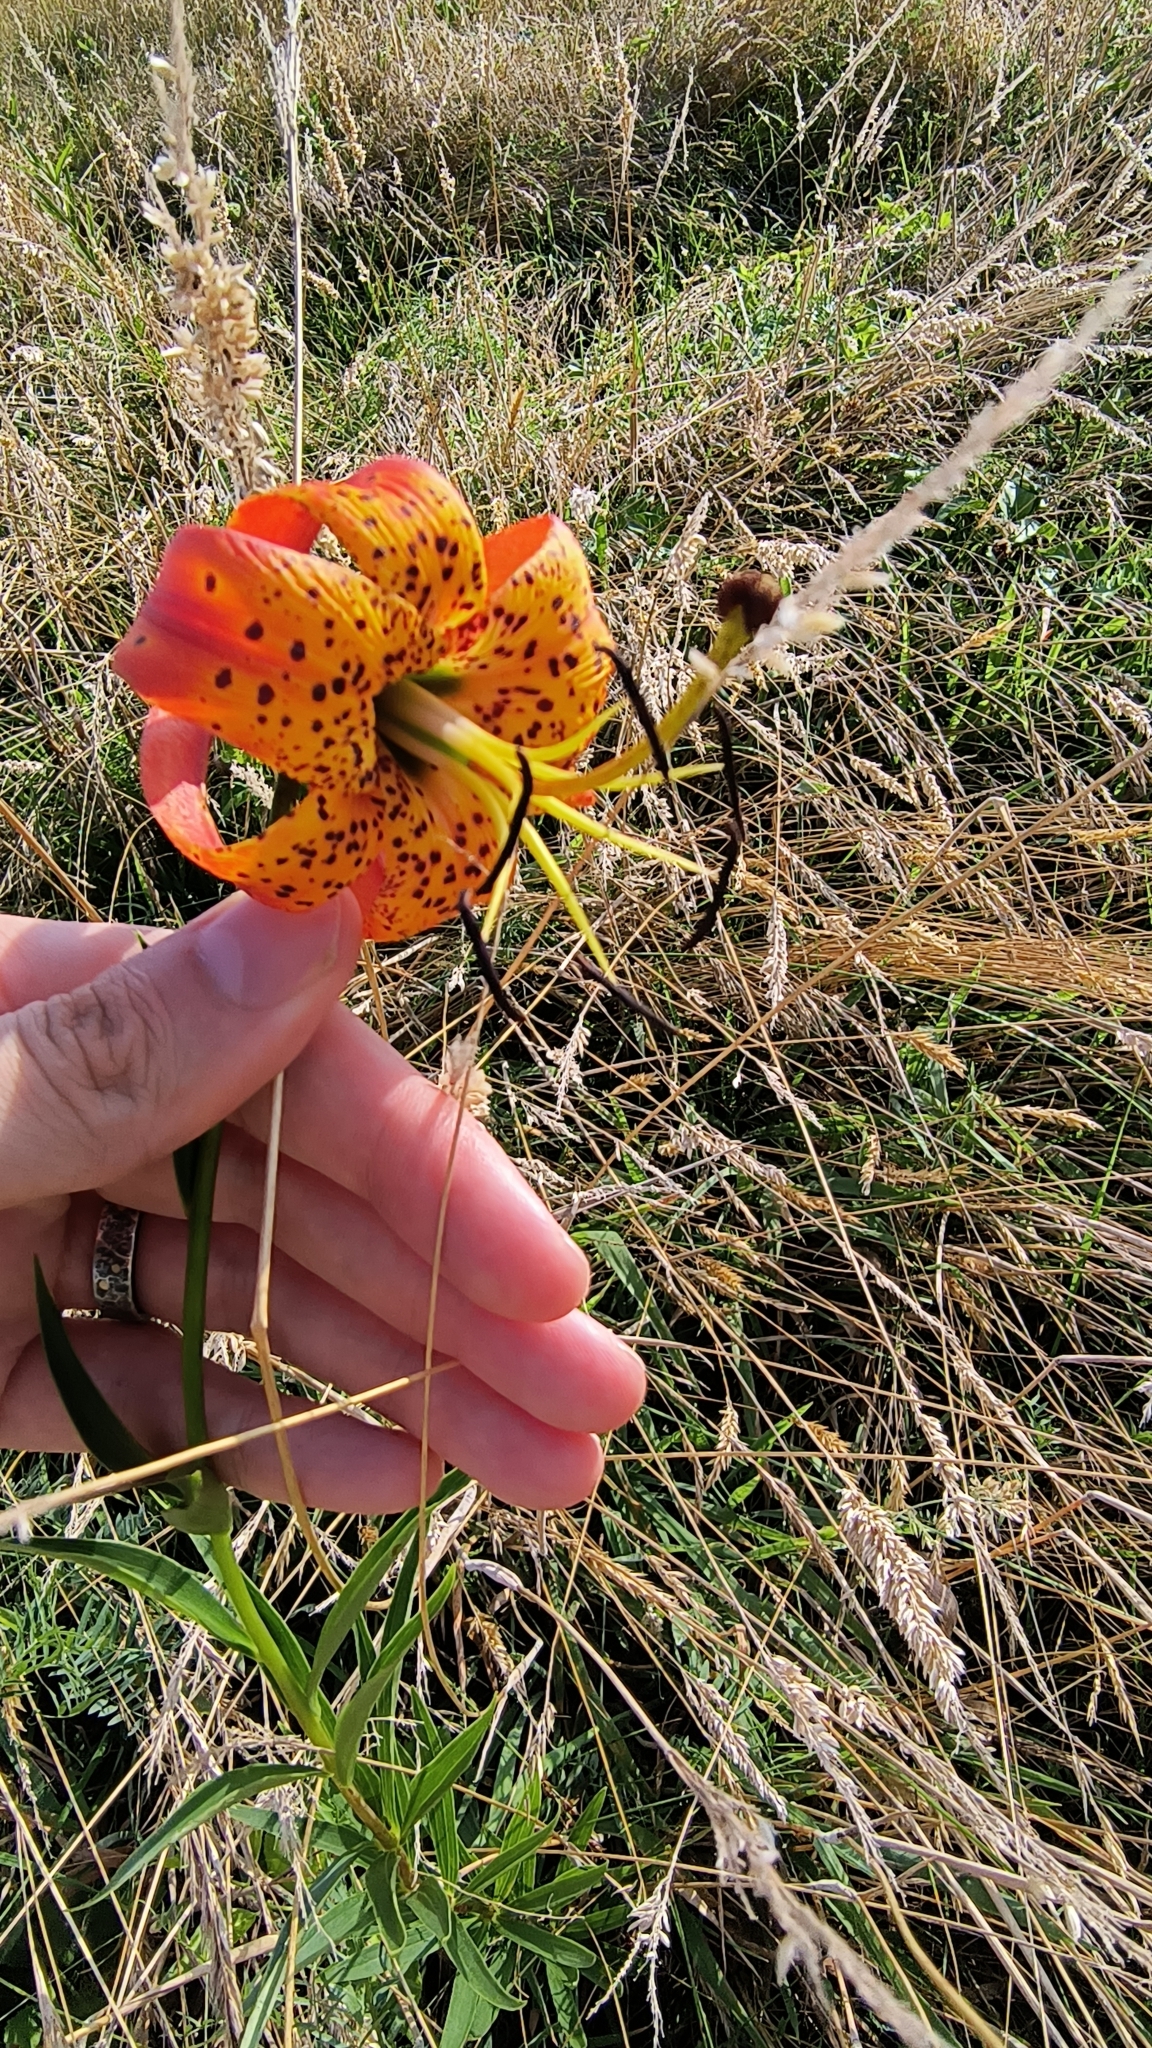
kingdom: Plantae
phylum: Tracheophyta
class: Liliopsida
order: Liliales
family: Liliaceae
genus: Lilium
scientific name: Lilium superbum
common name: American turk's-cap lily
